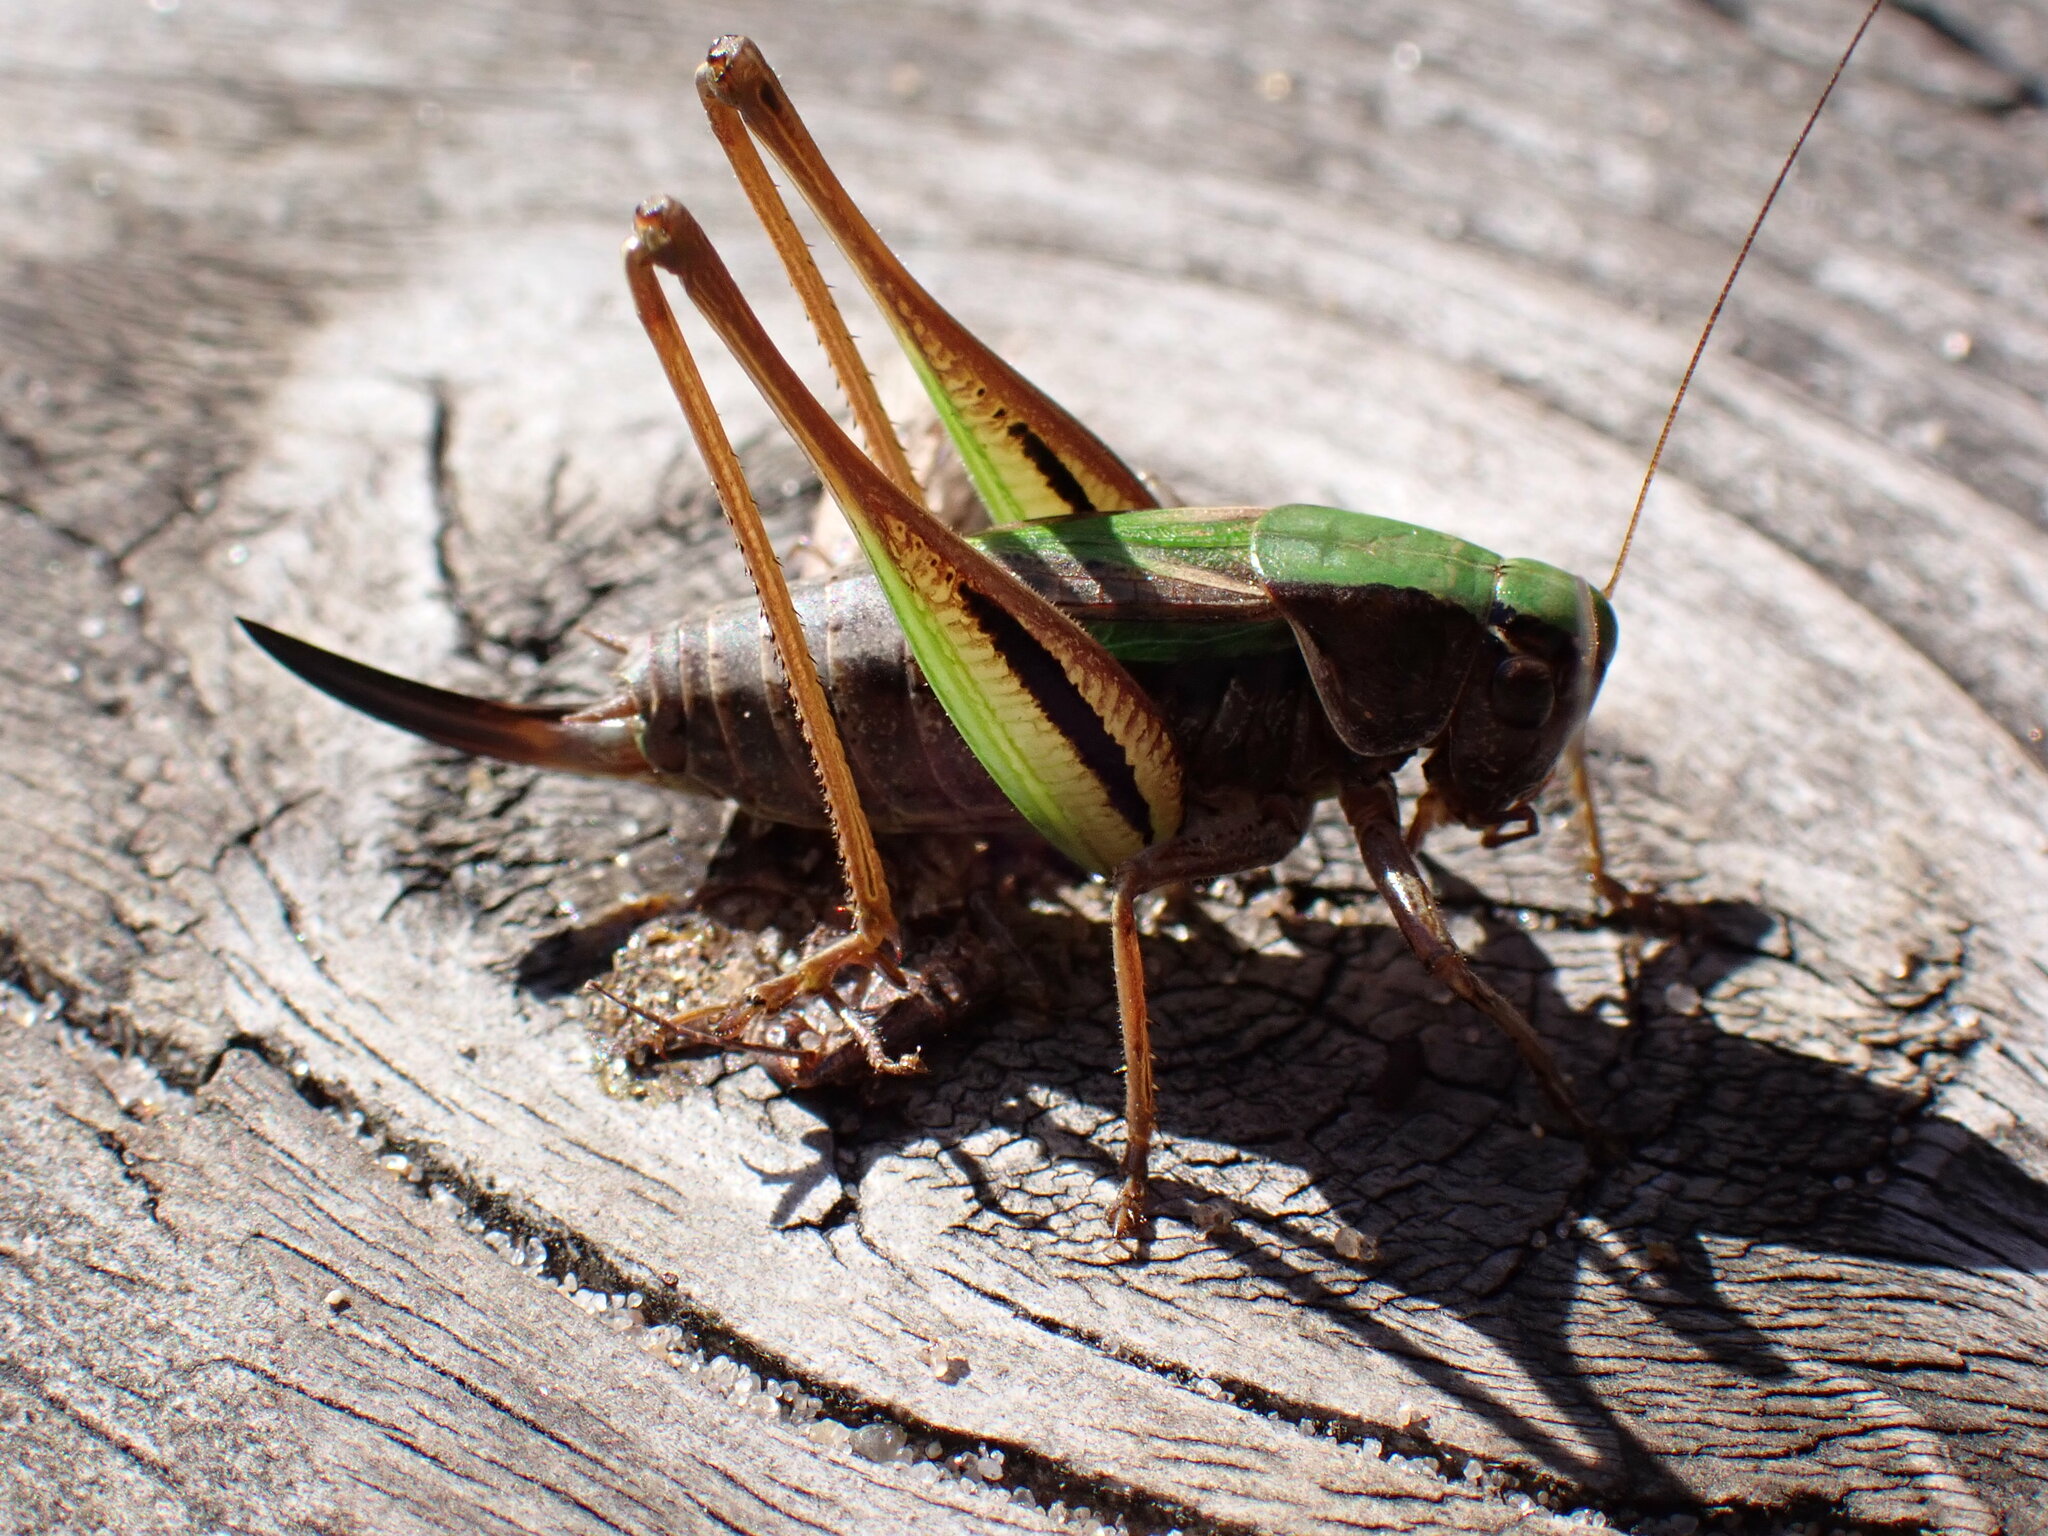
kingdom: Animalia
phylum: Arthropoda
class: Insecta
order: Orthoptera
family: Tettigoniidae
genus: Metrioptera
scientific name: Metrioptera brachyptera
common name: Bog bush-cricket
